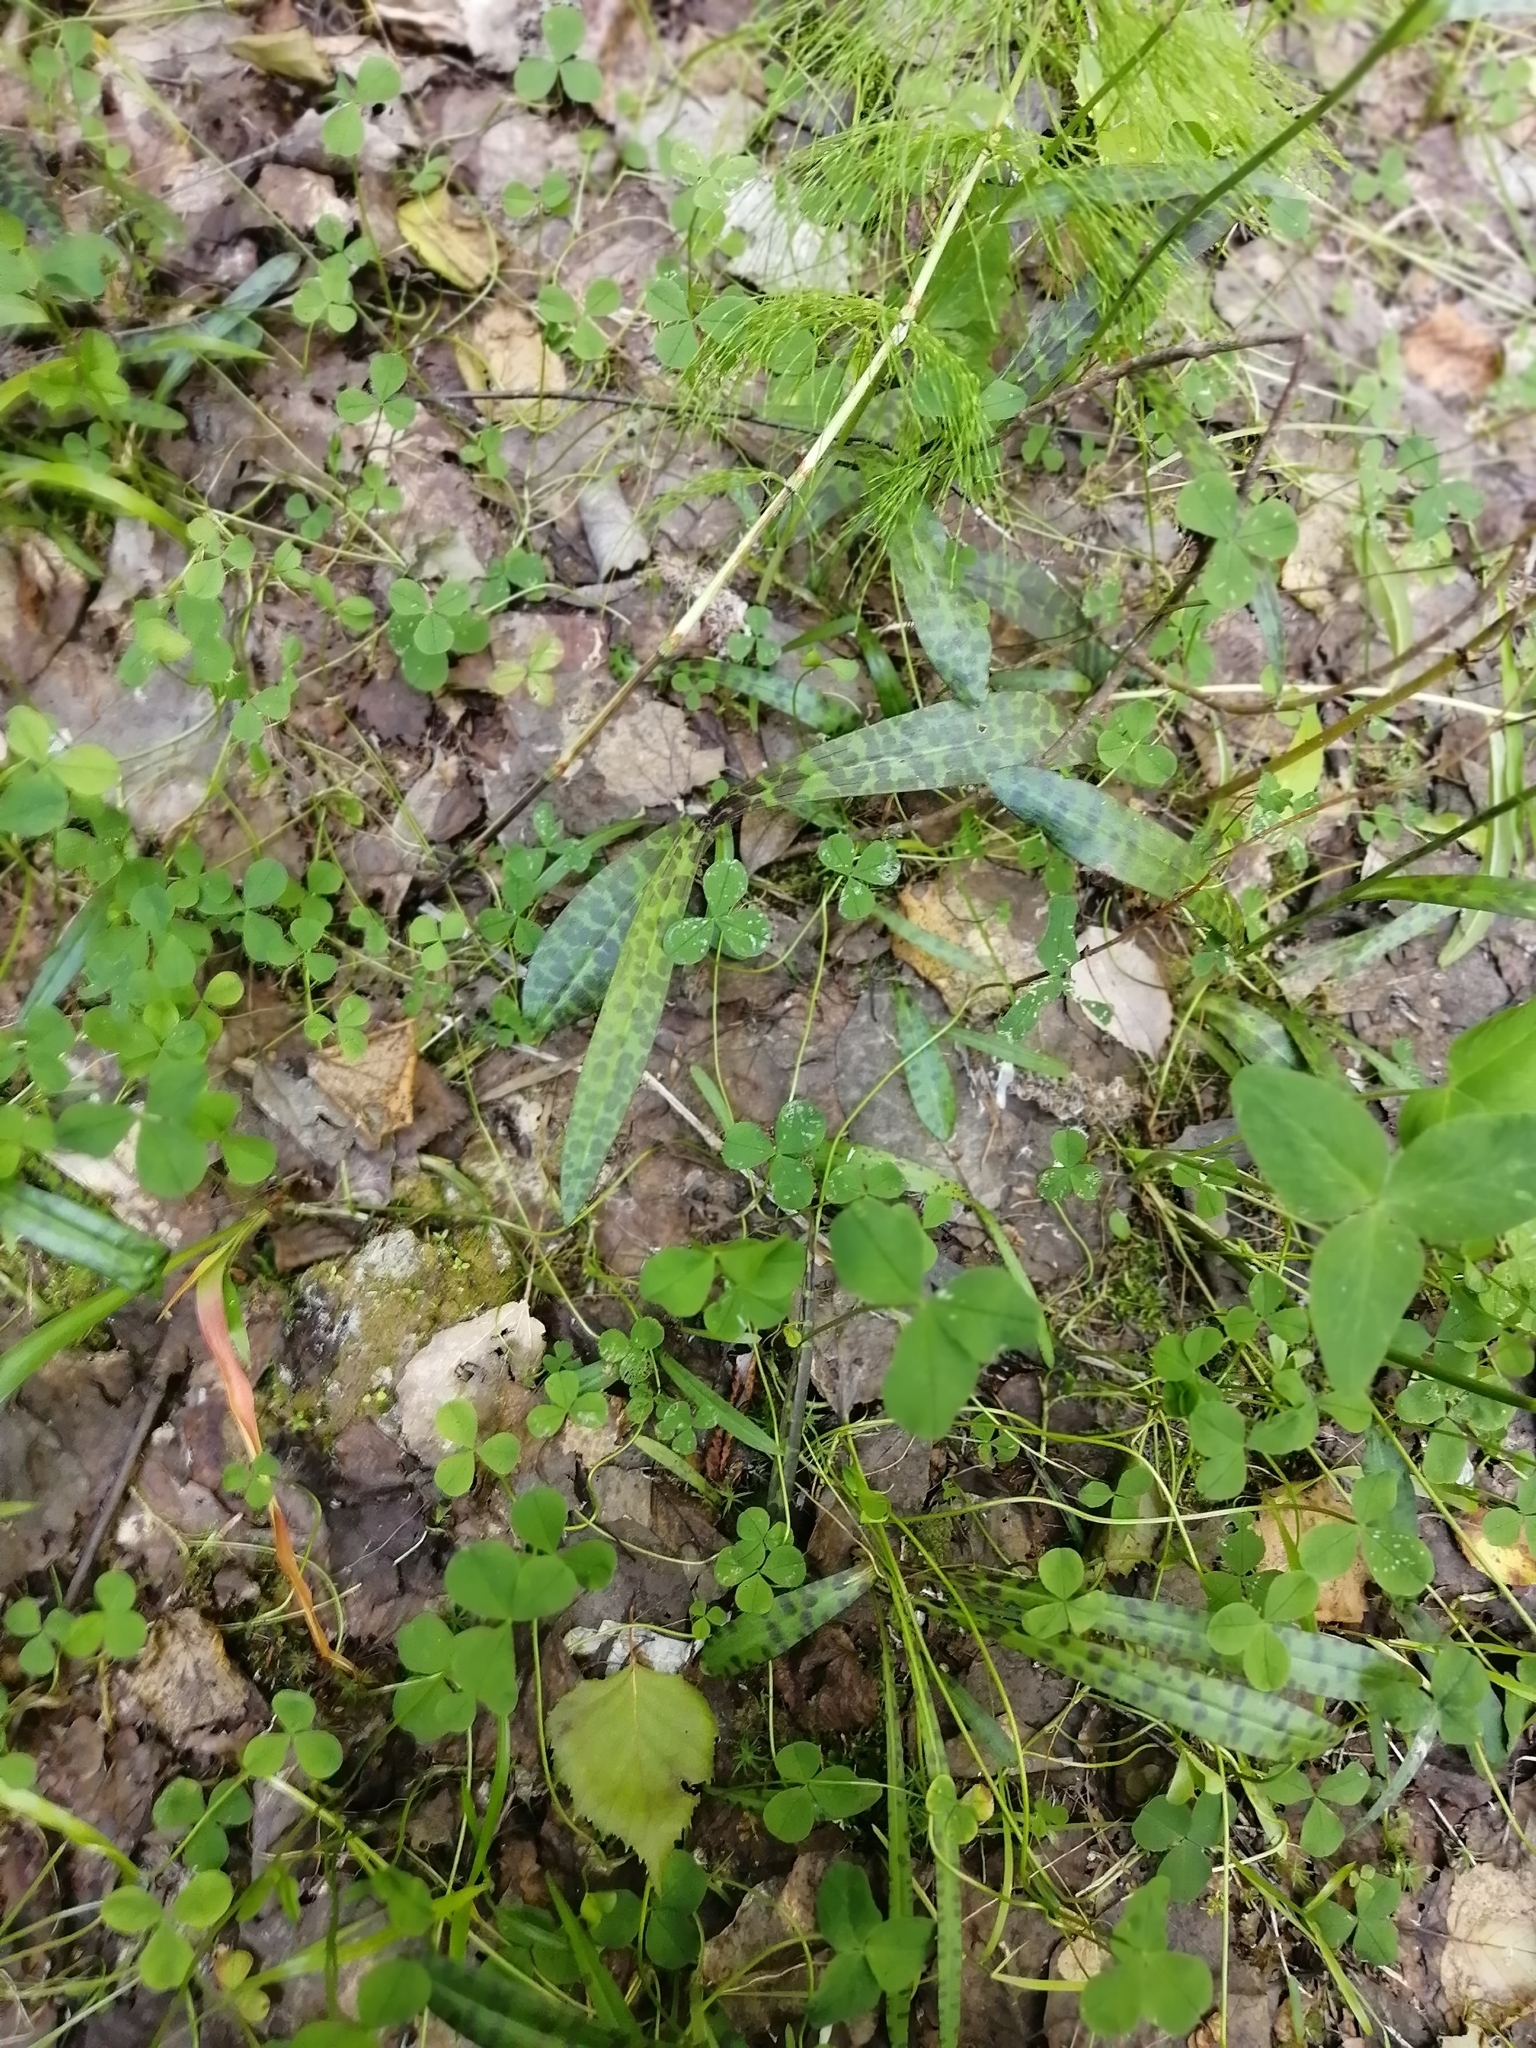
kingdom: Plantae
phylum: Tracheophyta
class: Liliopsida
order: Asparagales
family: Orchidaceae
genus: Dactylorhiza
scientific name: Dactylorhiza maculata
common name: Heath spotted-orchid
